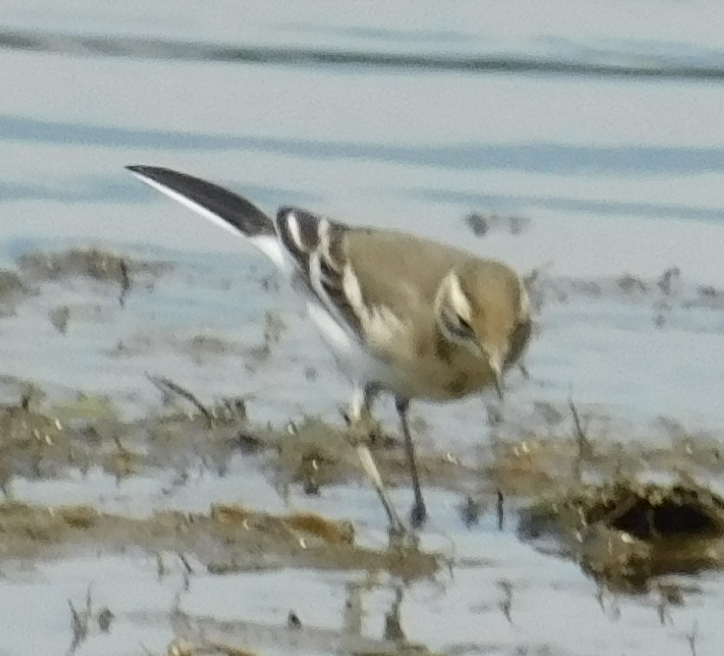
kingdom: Animalia
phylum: Chordata
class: Aves
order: Passeriformes
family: Motacillidae
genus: Motacilla
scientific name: Motacilla citreola
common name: Citrine wagtail
